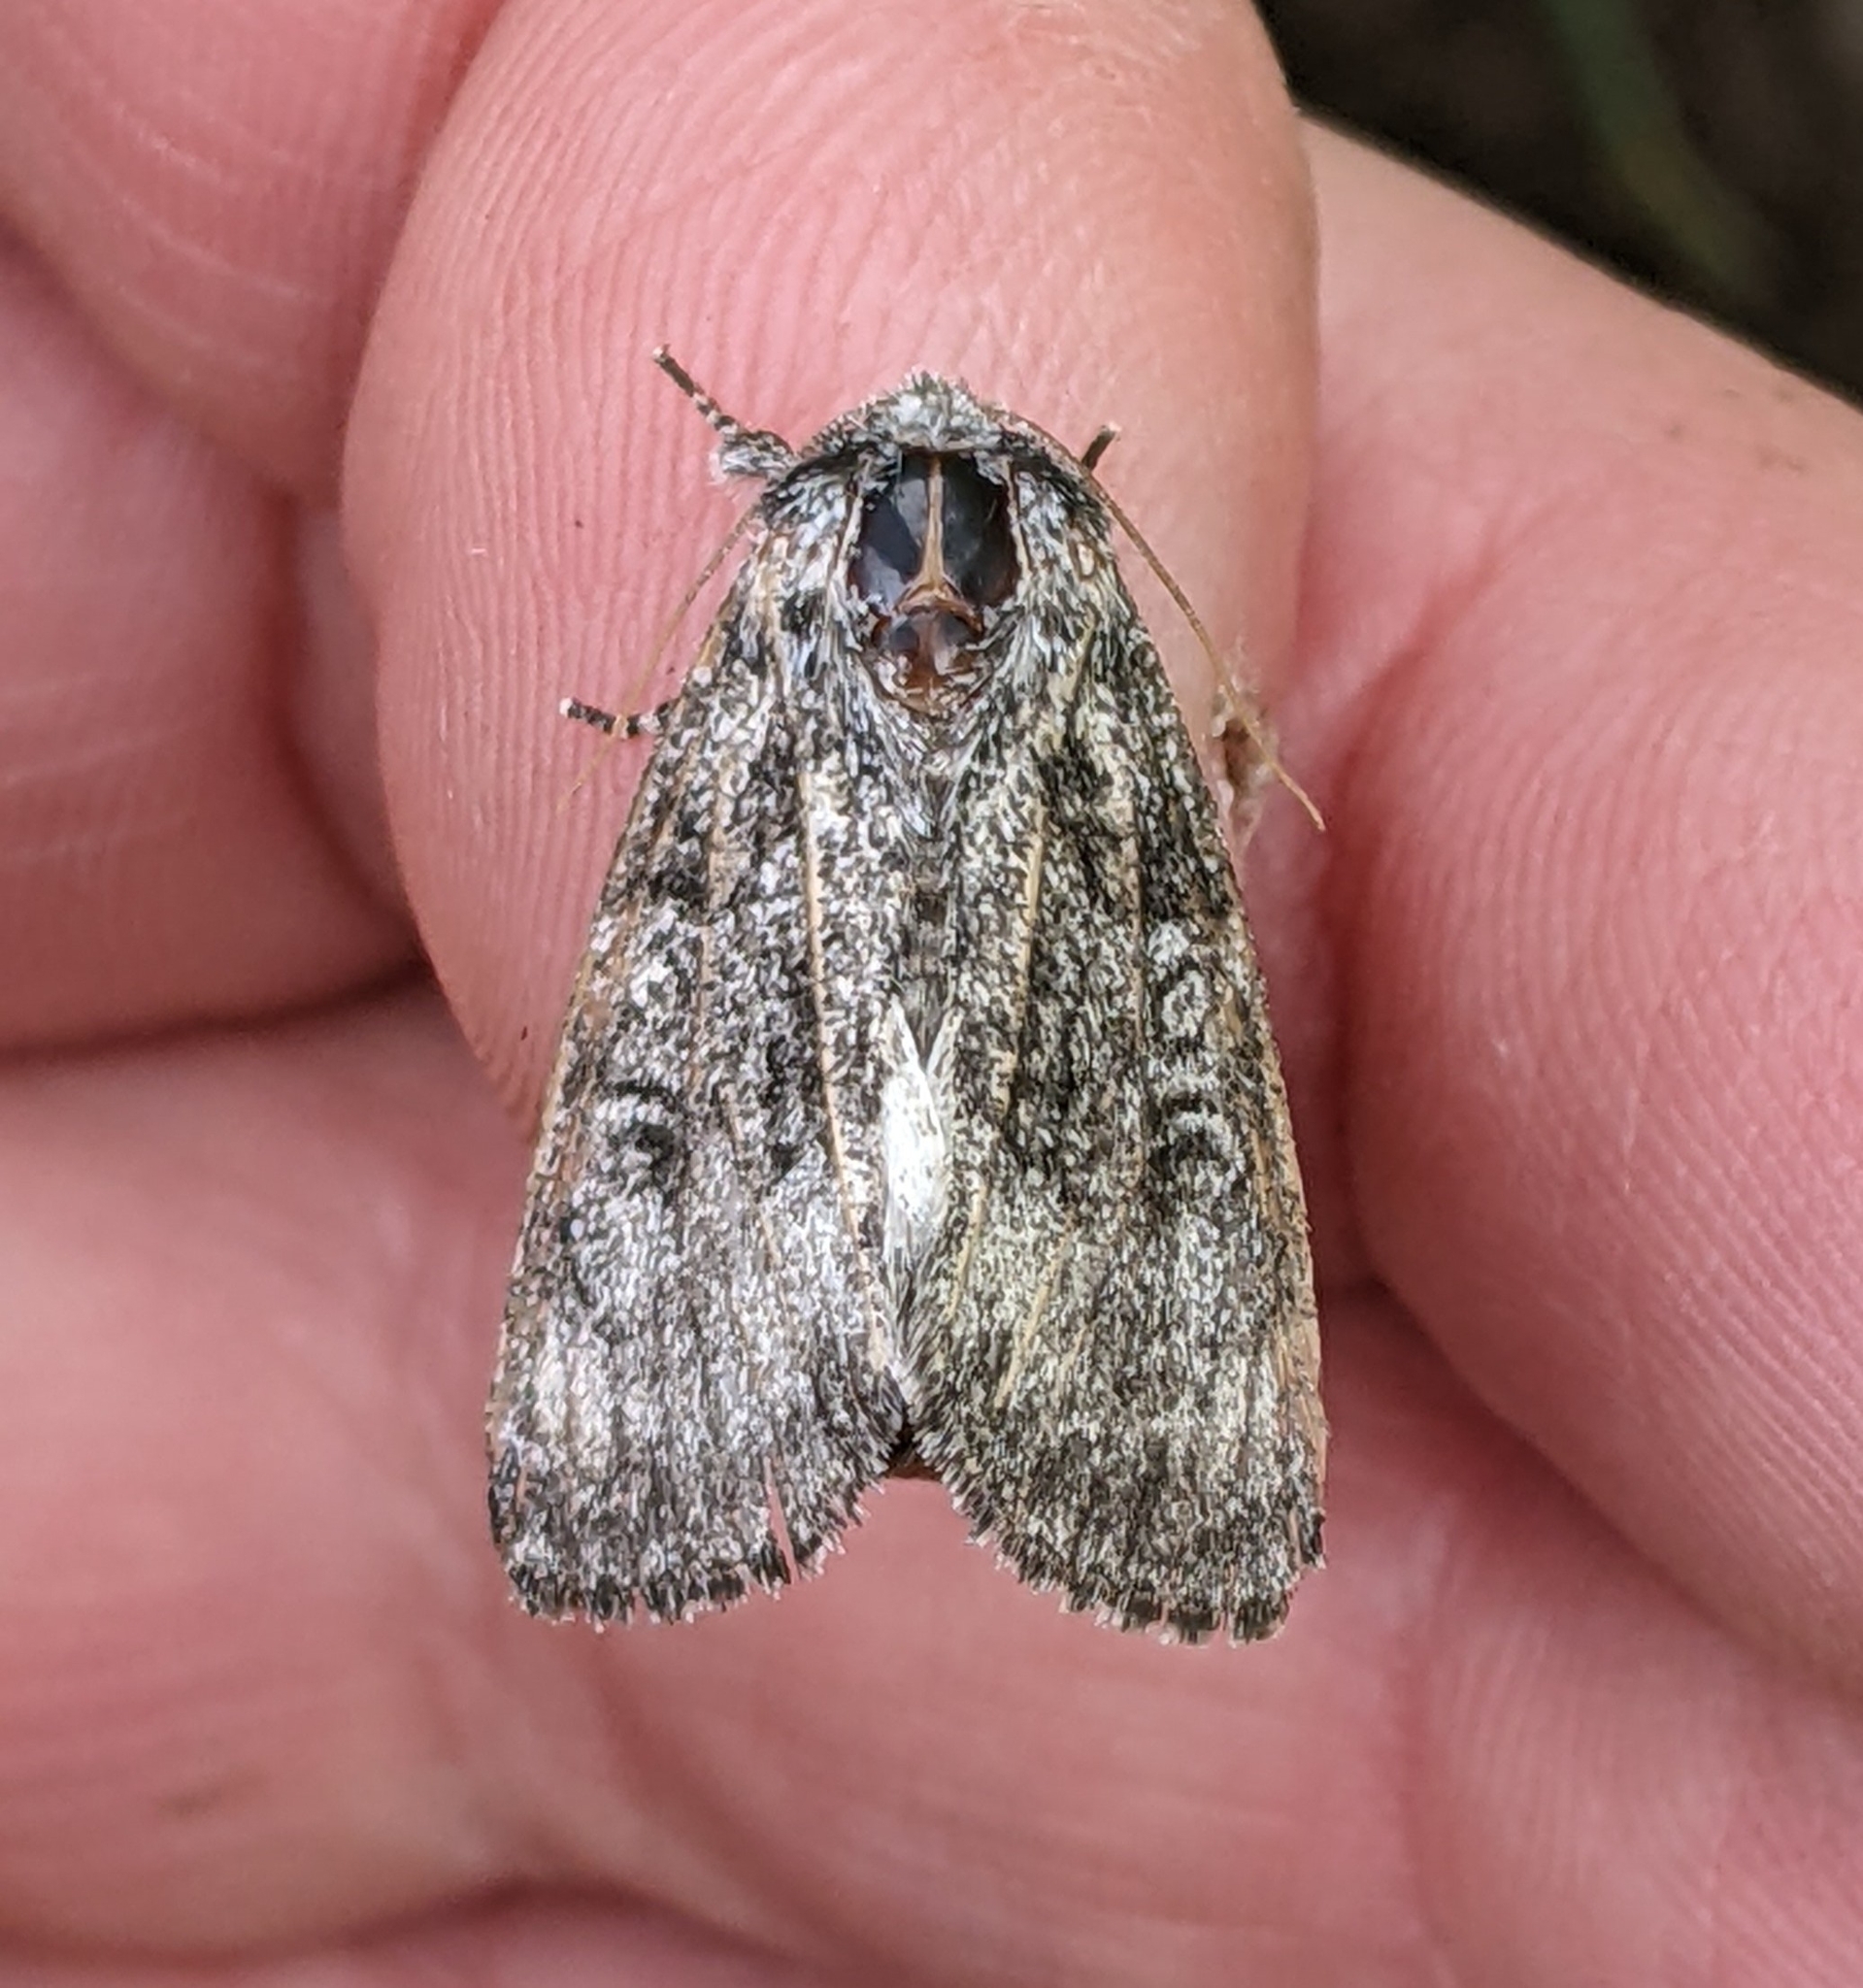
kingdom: Animalia
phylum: Arthropoda
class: Insecta
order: Lepidoptera
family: Noctuidae
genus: Raphia
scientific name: Raphia frater
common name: Brother
